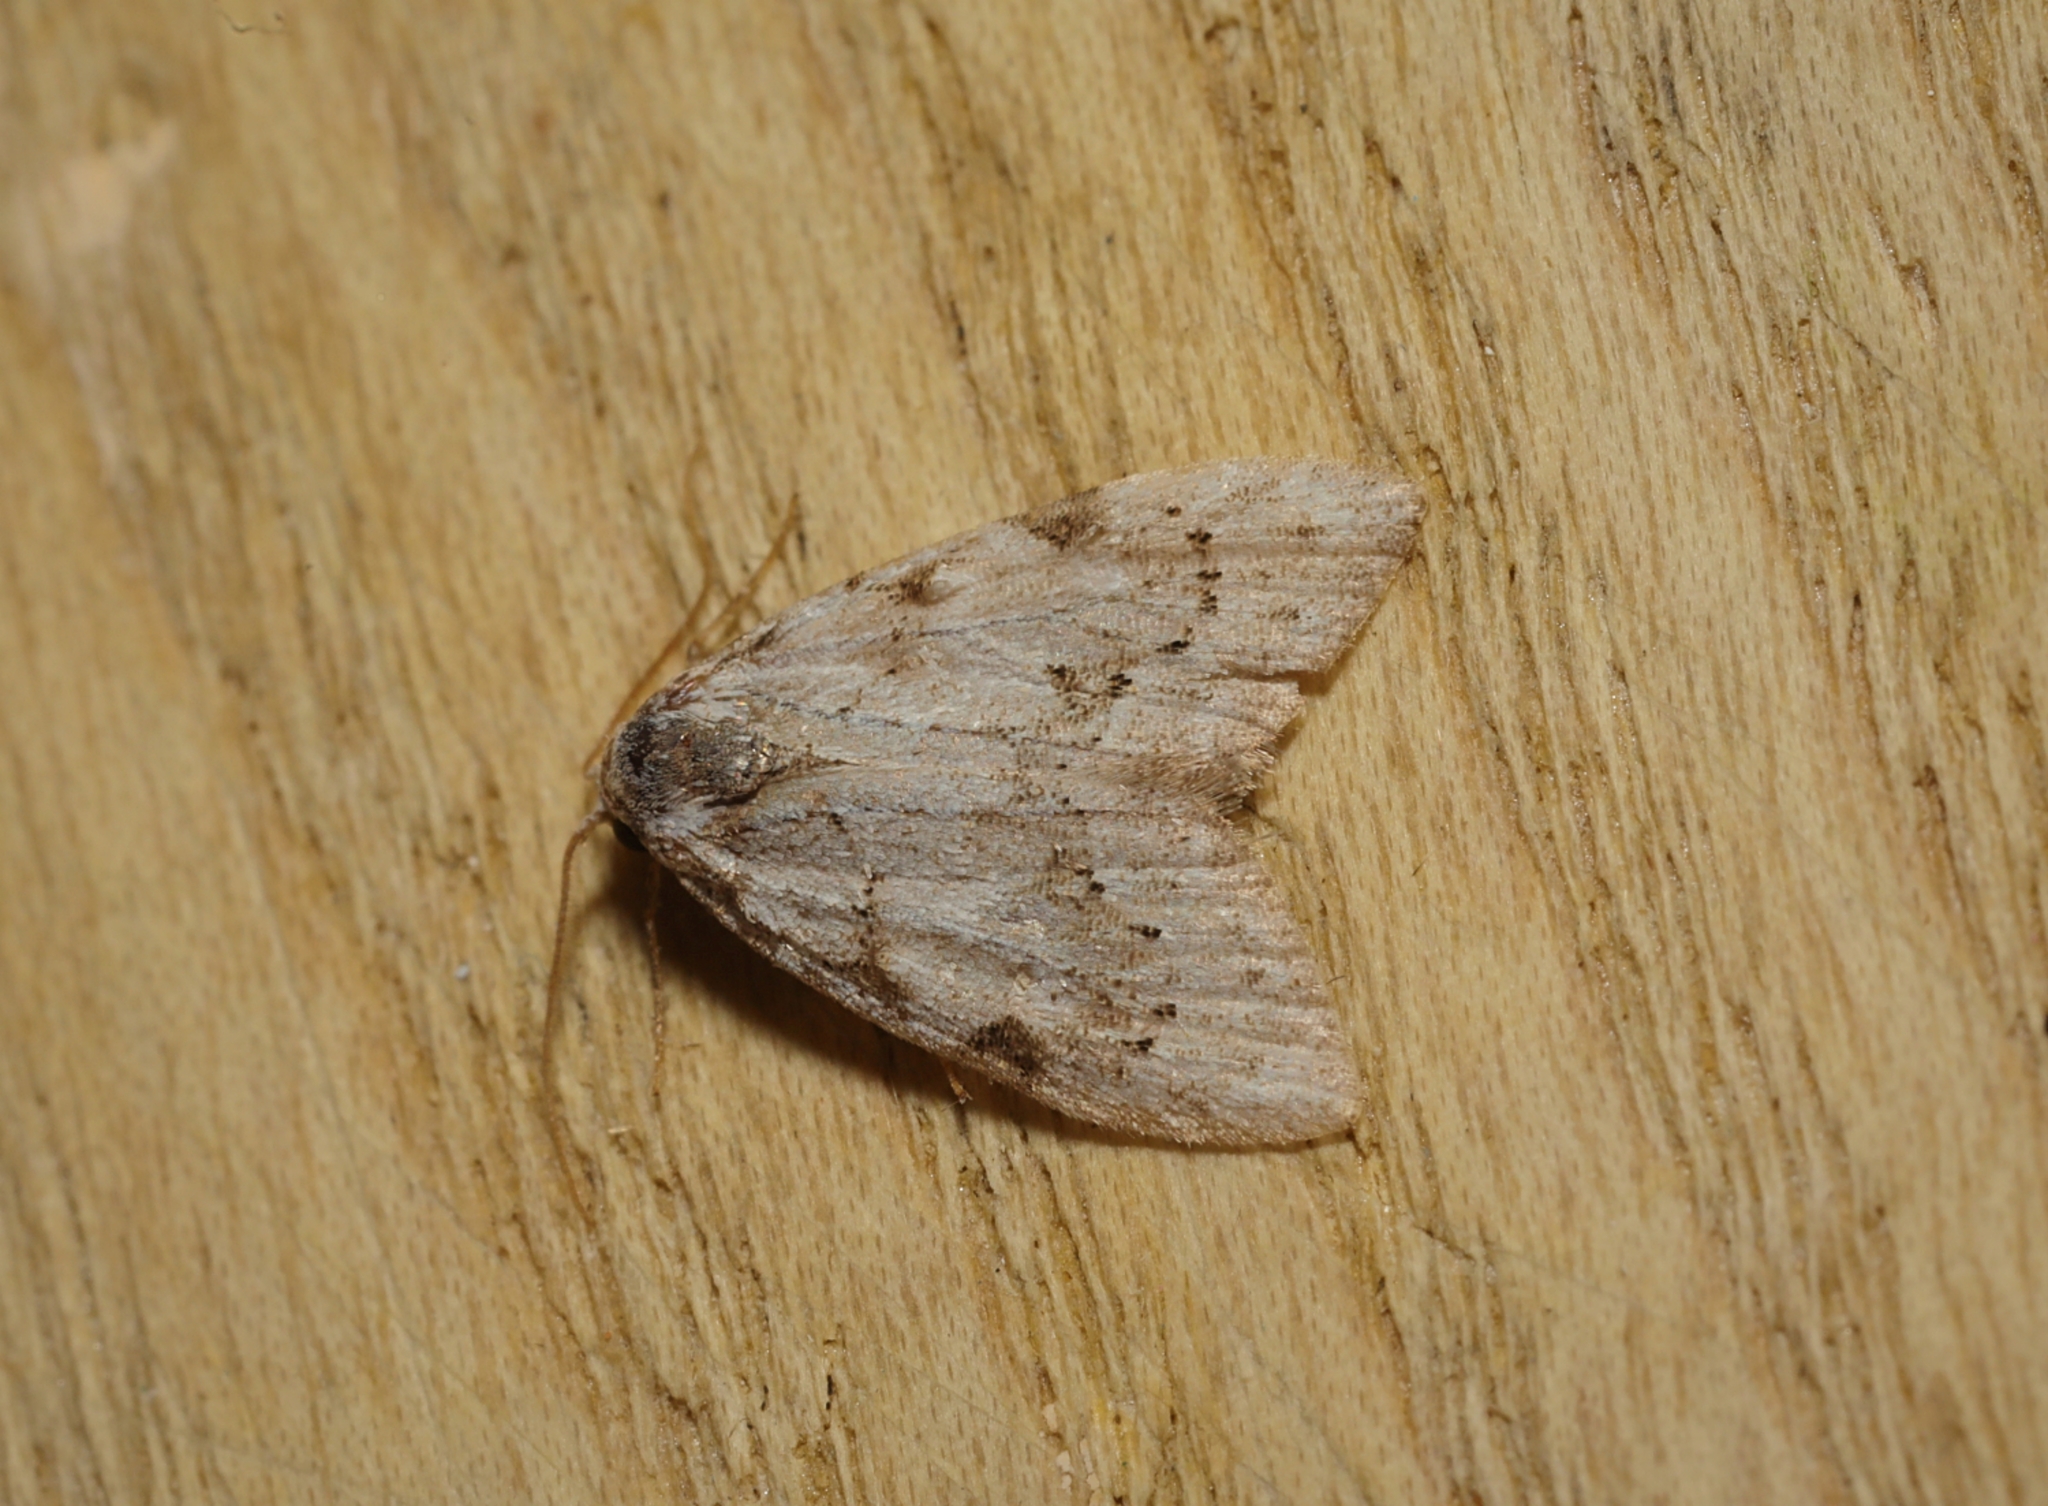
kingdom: Animalia
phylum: Arthropoda
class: Insecta
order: Lepidoptera
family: Nolidae
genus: Nola
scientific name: Nola confusalis
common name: Least black arches
